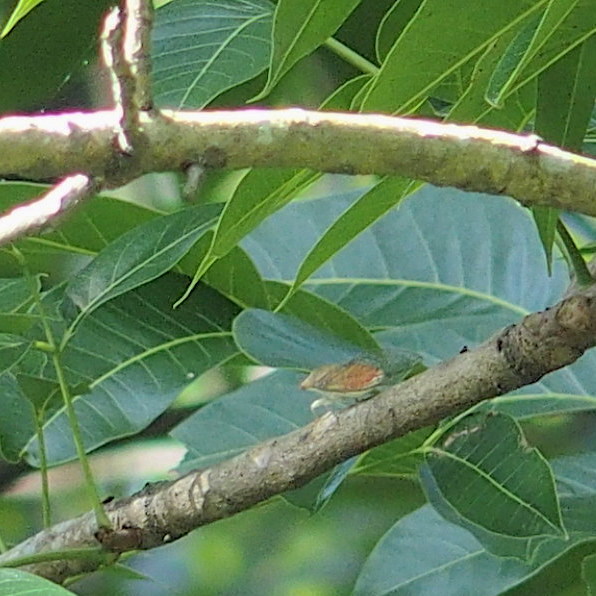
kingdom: Animalia
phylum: Arthropoda
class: Insecta
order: Hemiptera
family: Cicadidae
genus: Chremistica
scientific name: Chremistica ochracea
